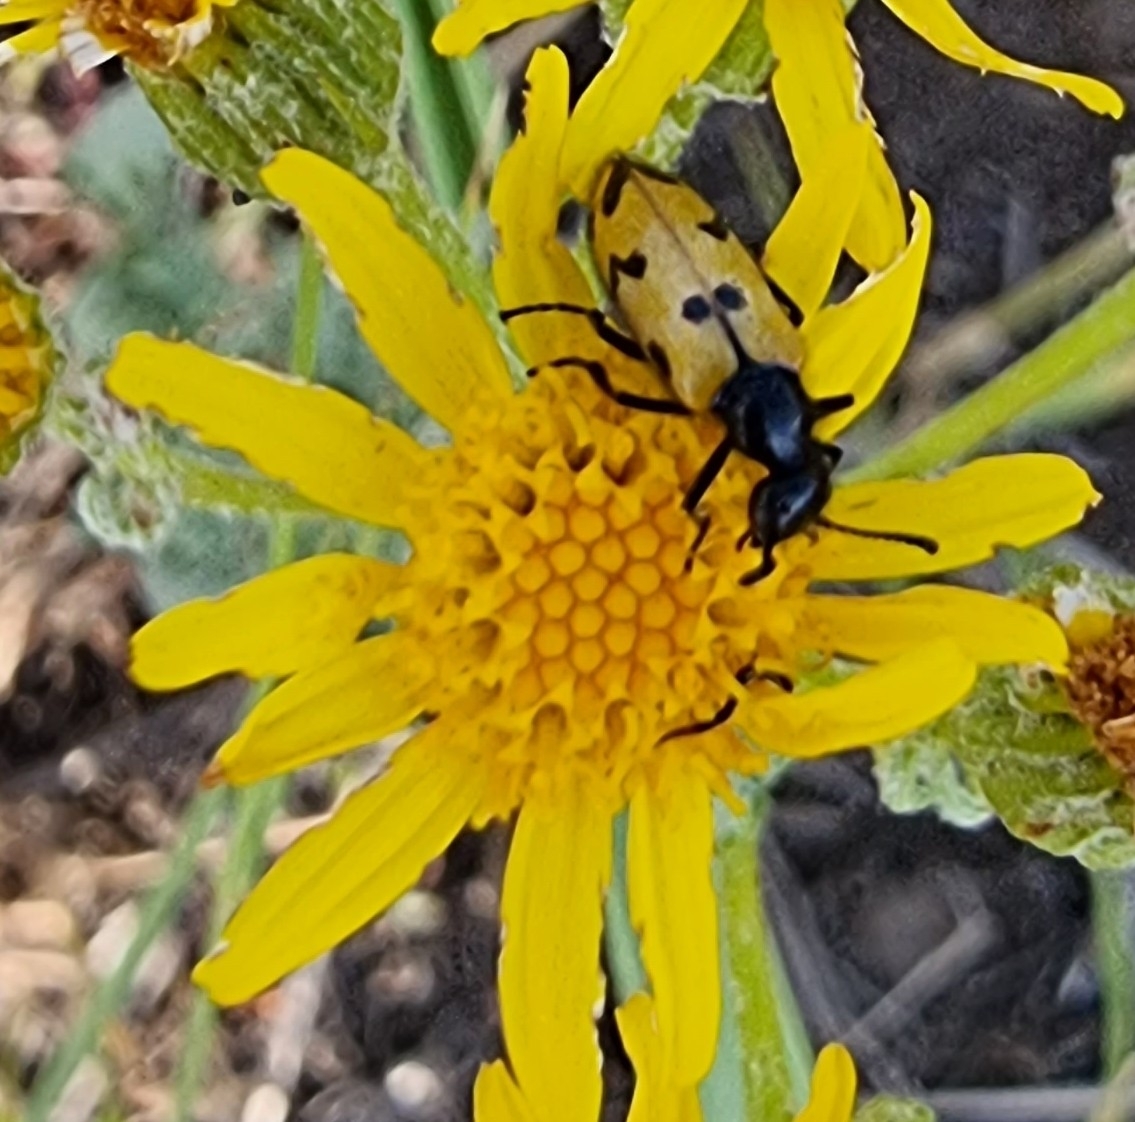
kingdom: Animalia
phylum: Arthropoda
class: Insecta
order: Coleoptera
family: Meloidae
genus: Mylabris
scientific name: Mylabris geminata
